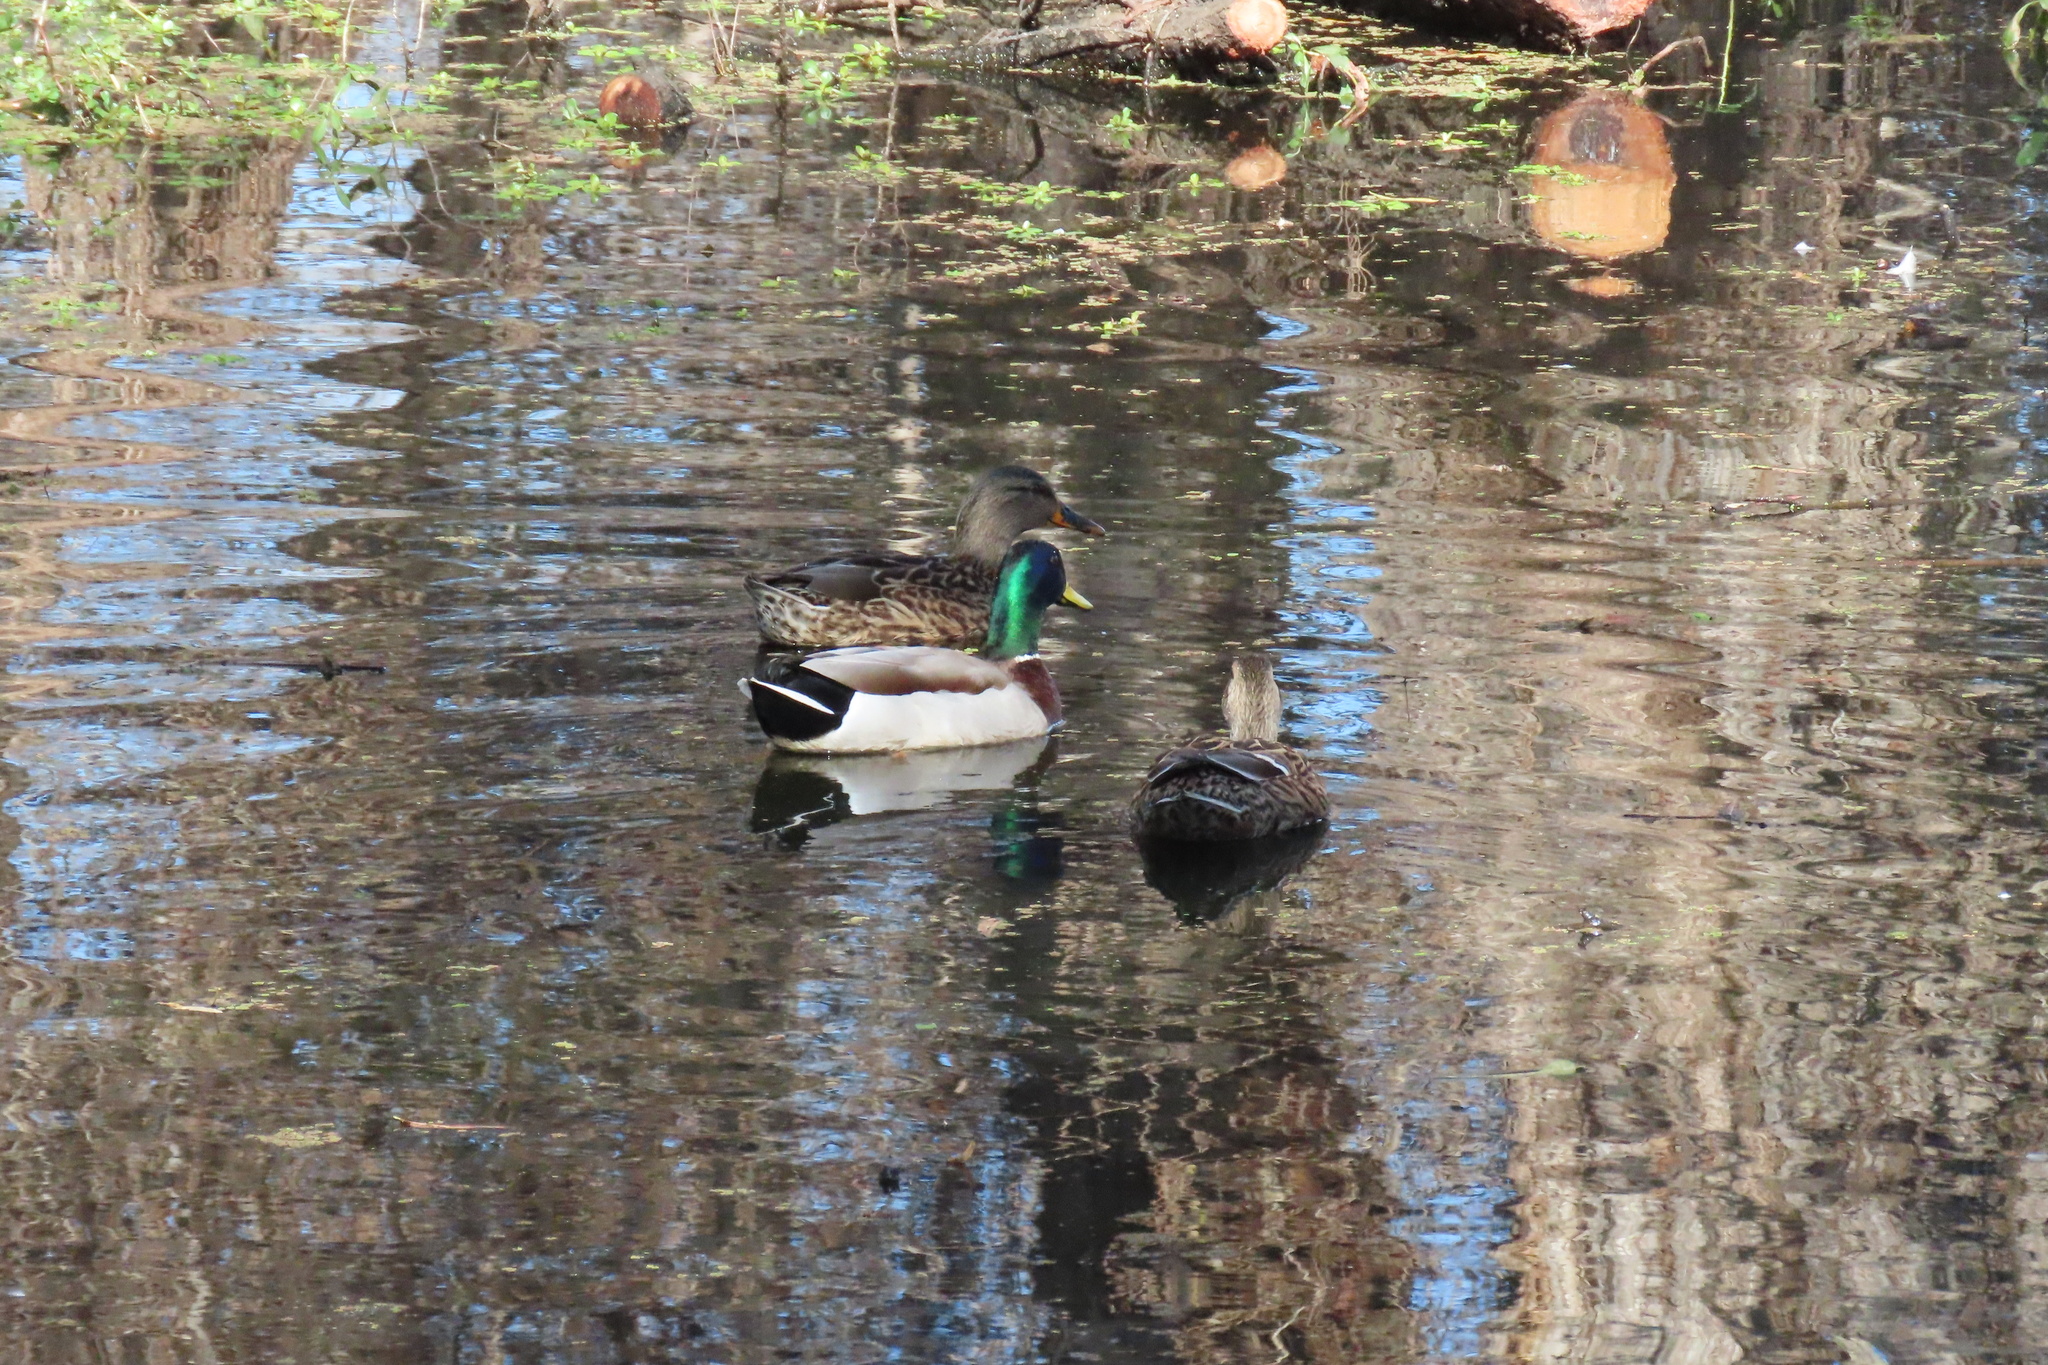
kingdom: Animalia
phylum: Chordata
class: Aves
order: Anseriformes
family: Anatidae
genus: Anas
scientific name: Anas platyrhynchos
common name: Mallard
